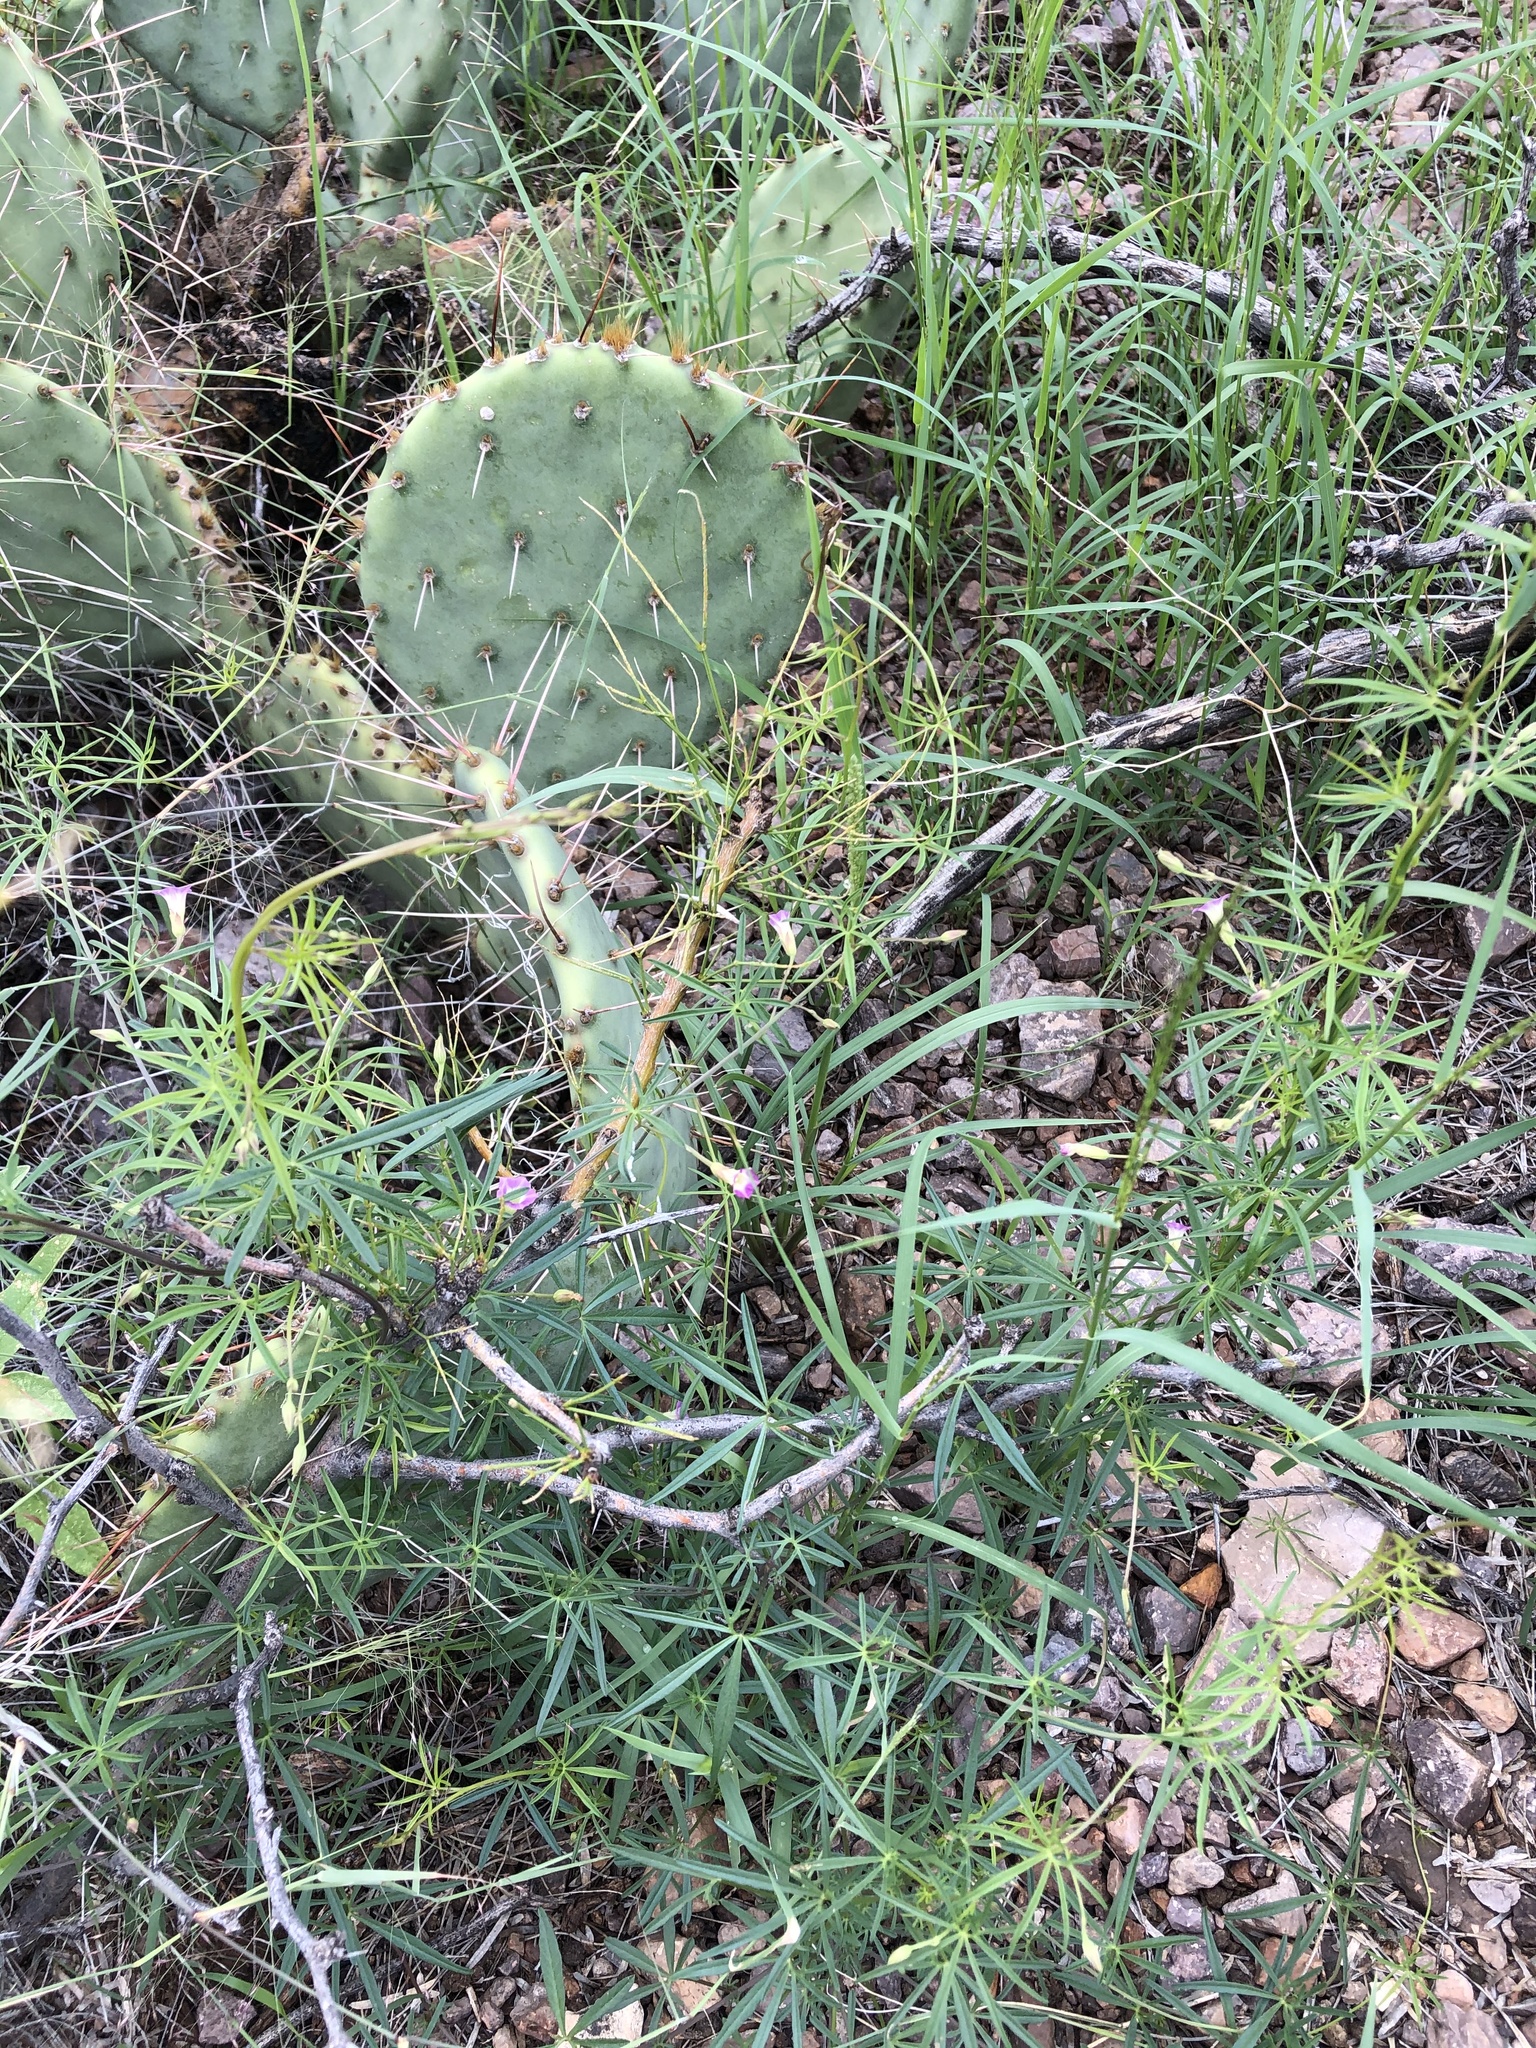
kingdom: Plantae
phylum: Tracheophyta
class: Magnoliopsida
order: Solanales
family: Convolvulaceae
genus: Ipomoea
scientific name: Ipomoea costellata
